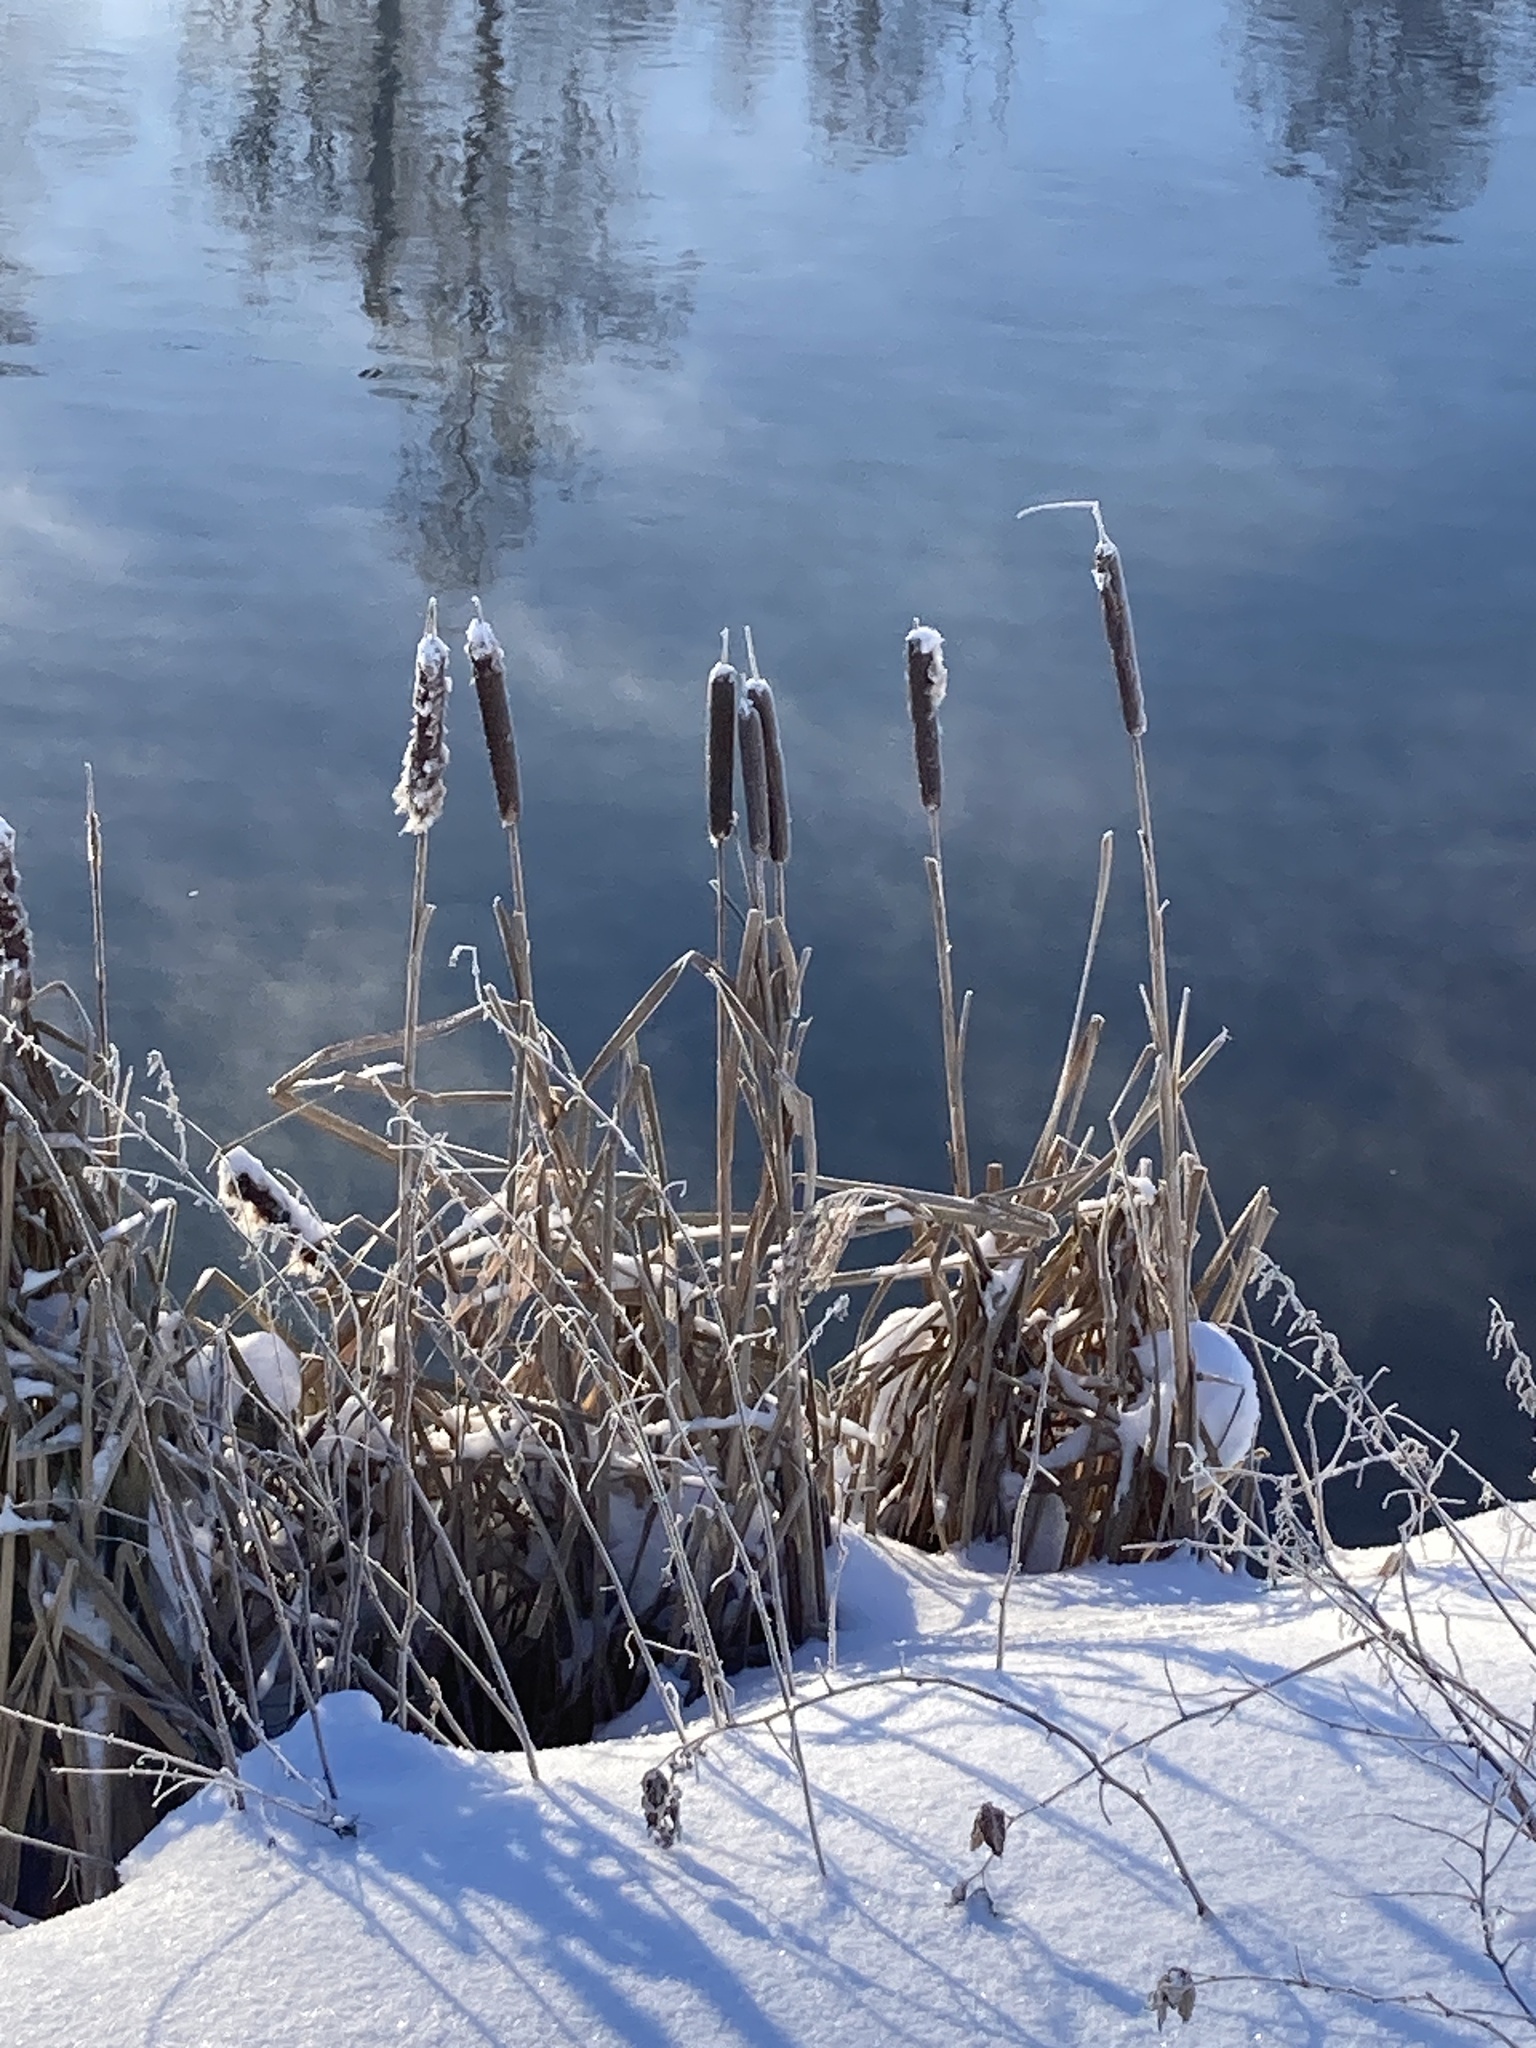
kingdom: Plantae
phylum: Tracheophyta
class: Liliopsida
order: Poales
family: Typhaceae
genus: Typha
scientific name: Typha latifolia
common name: Broadleaf cattail
